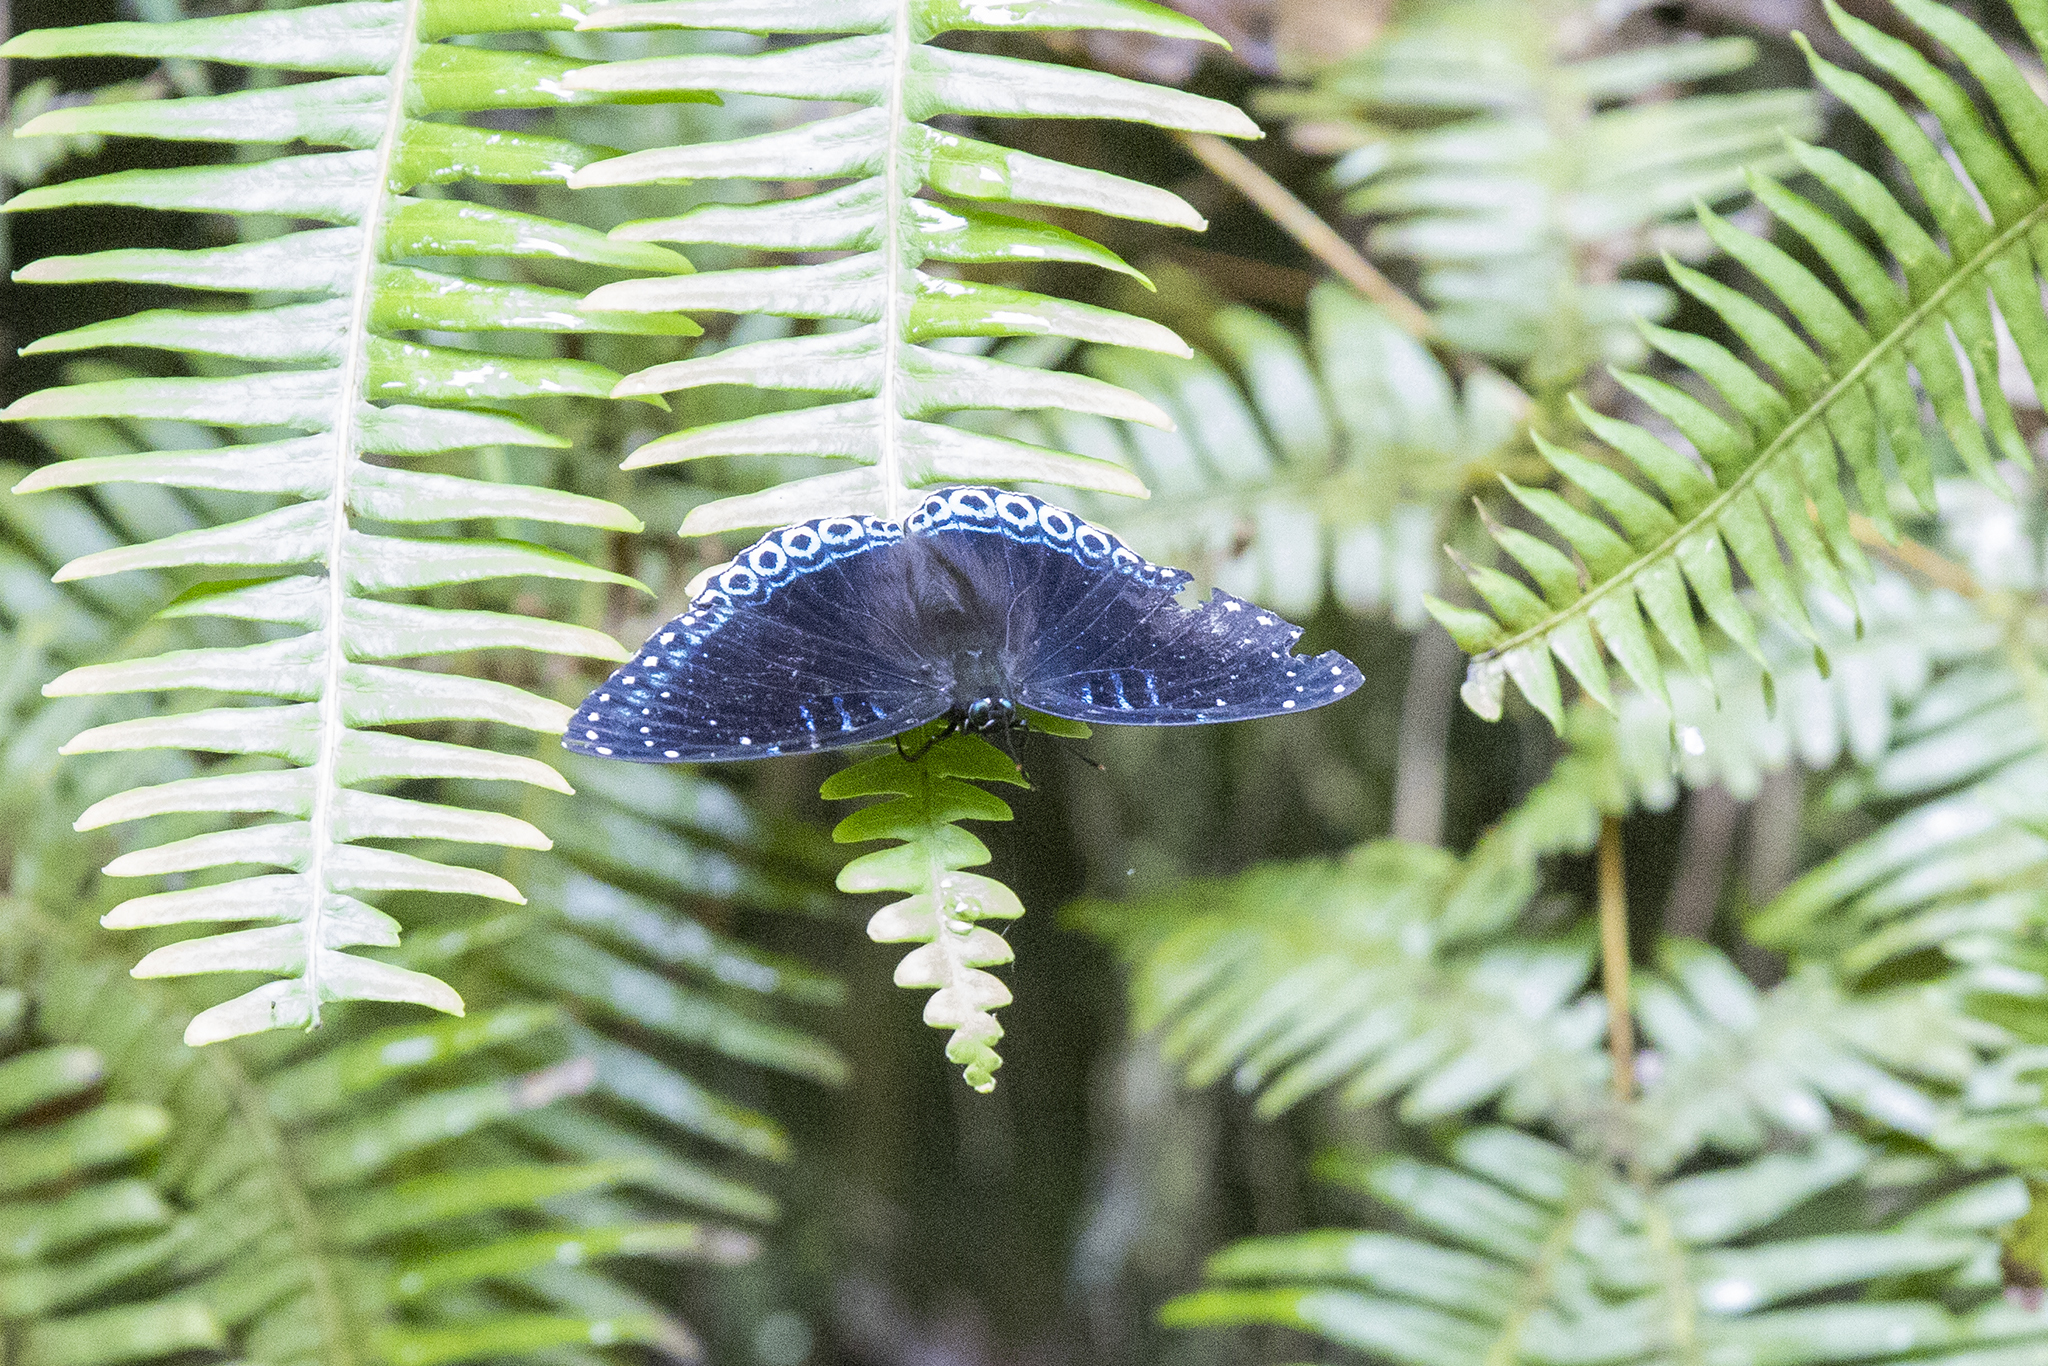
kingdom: Animalia
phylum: Arthropoda
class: Insecta
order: Lepidoptera
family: Nymphalidae
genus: Stibochiona
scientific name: Stibochiona nicea
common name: Popinjay
